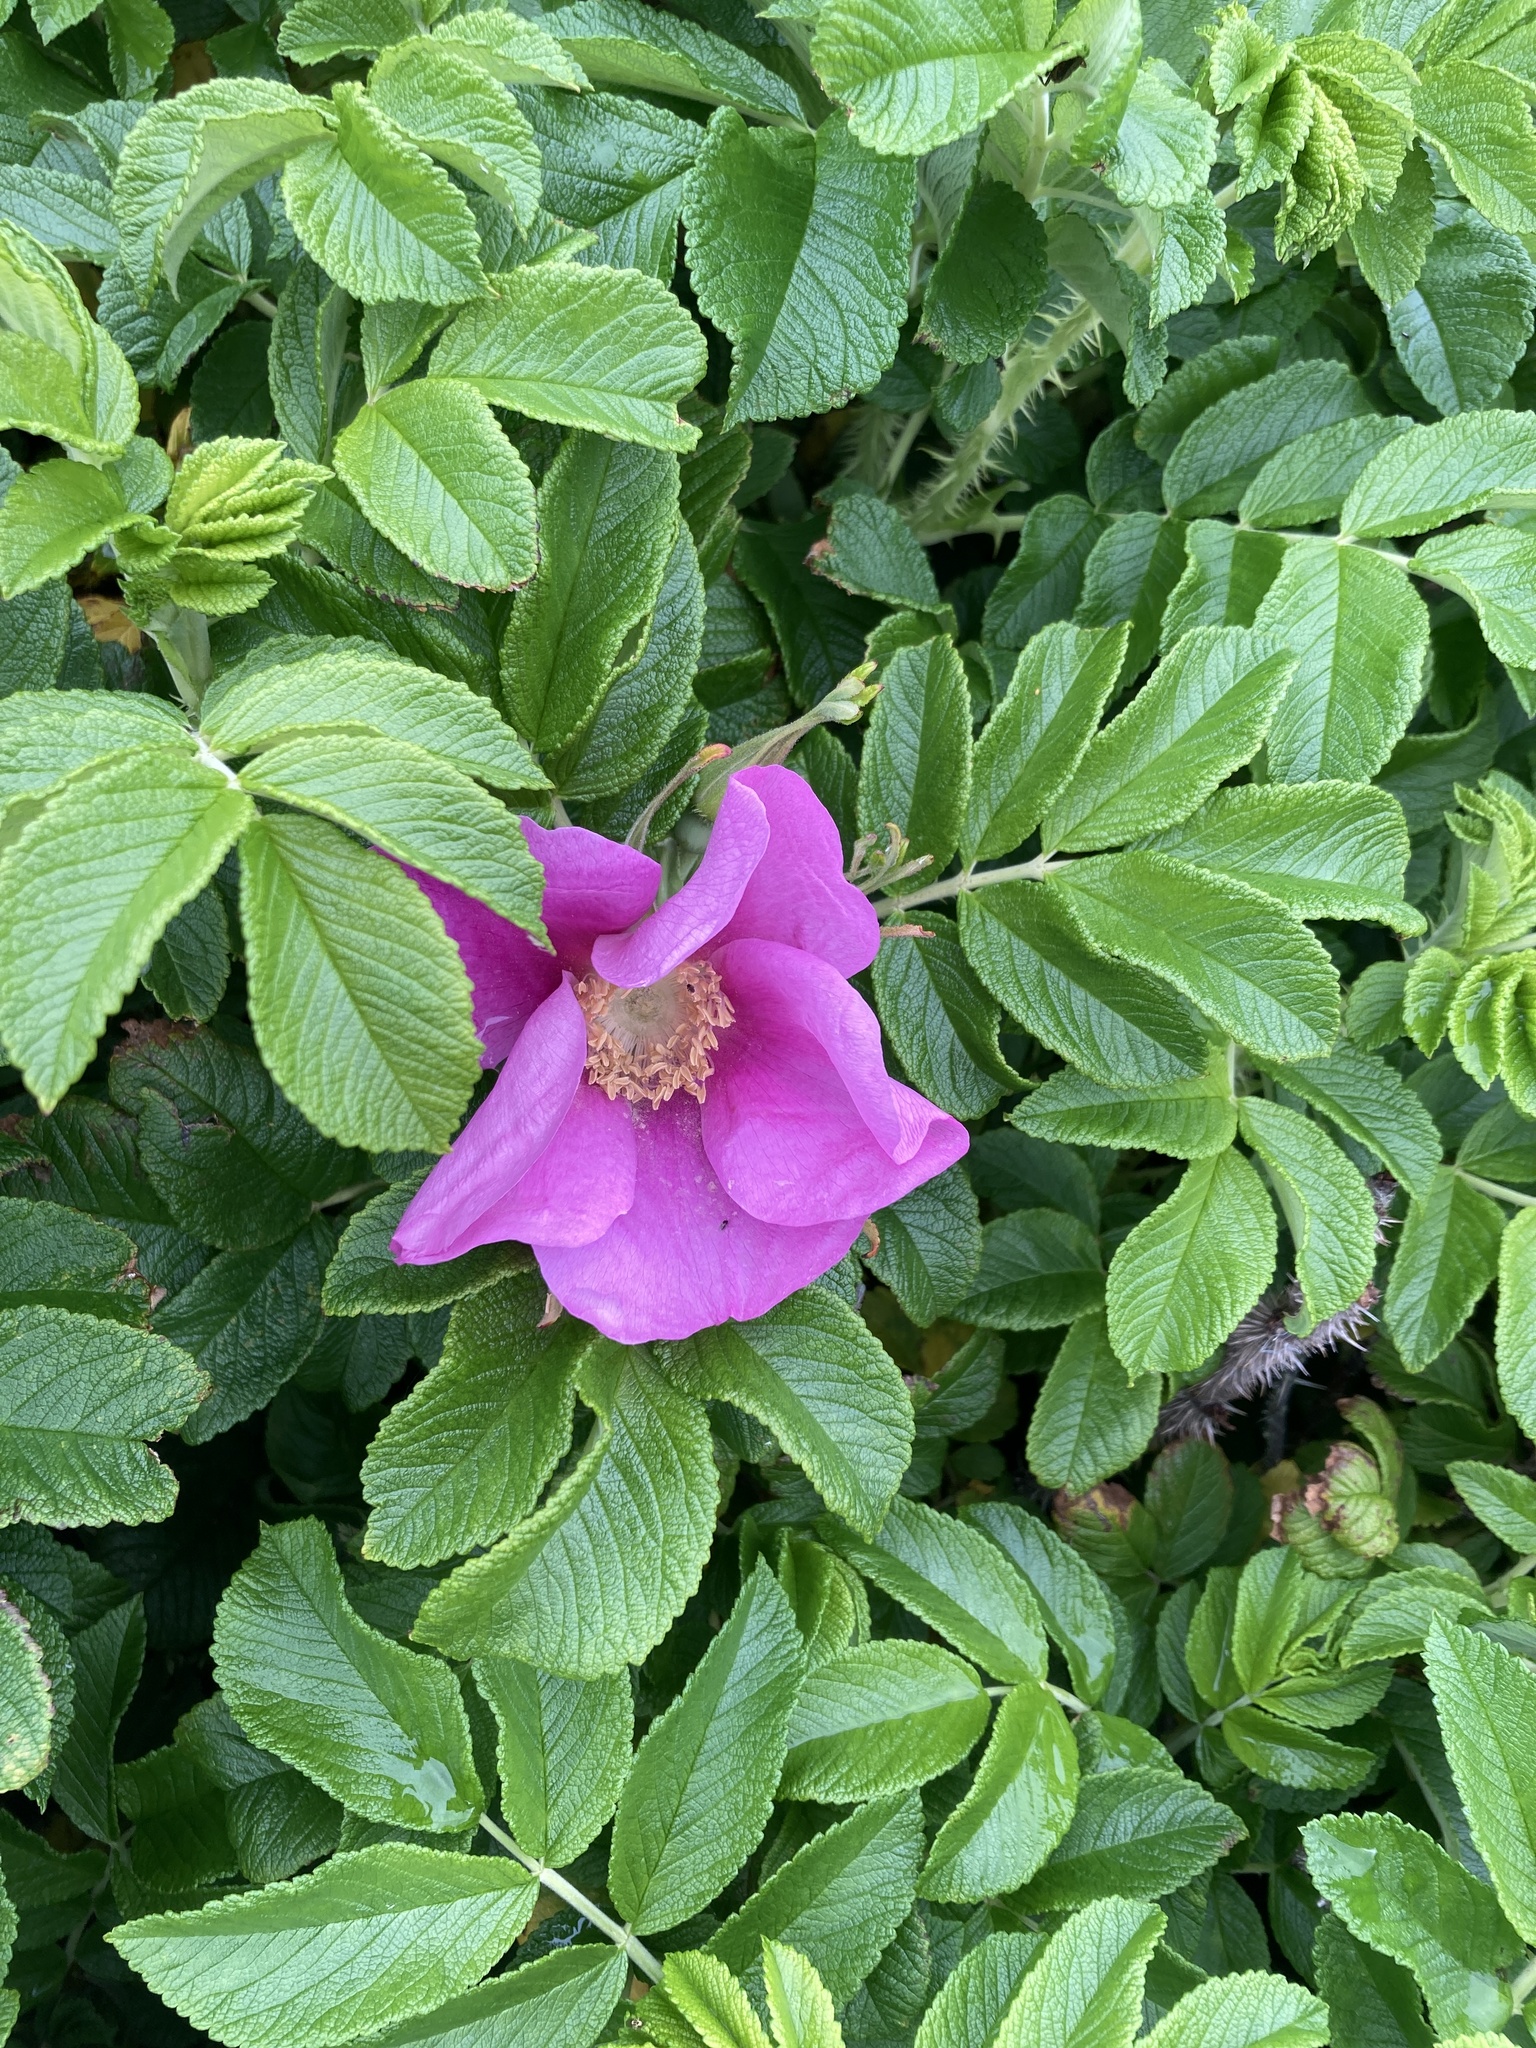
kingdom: Plantae
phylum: Tracheophyta
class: Magnoliopsida
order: Rosales
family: Rosaceae
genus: Rosa
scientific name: Rosa rugosa
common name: Japanese rose
